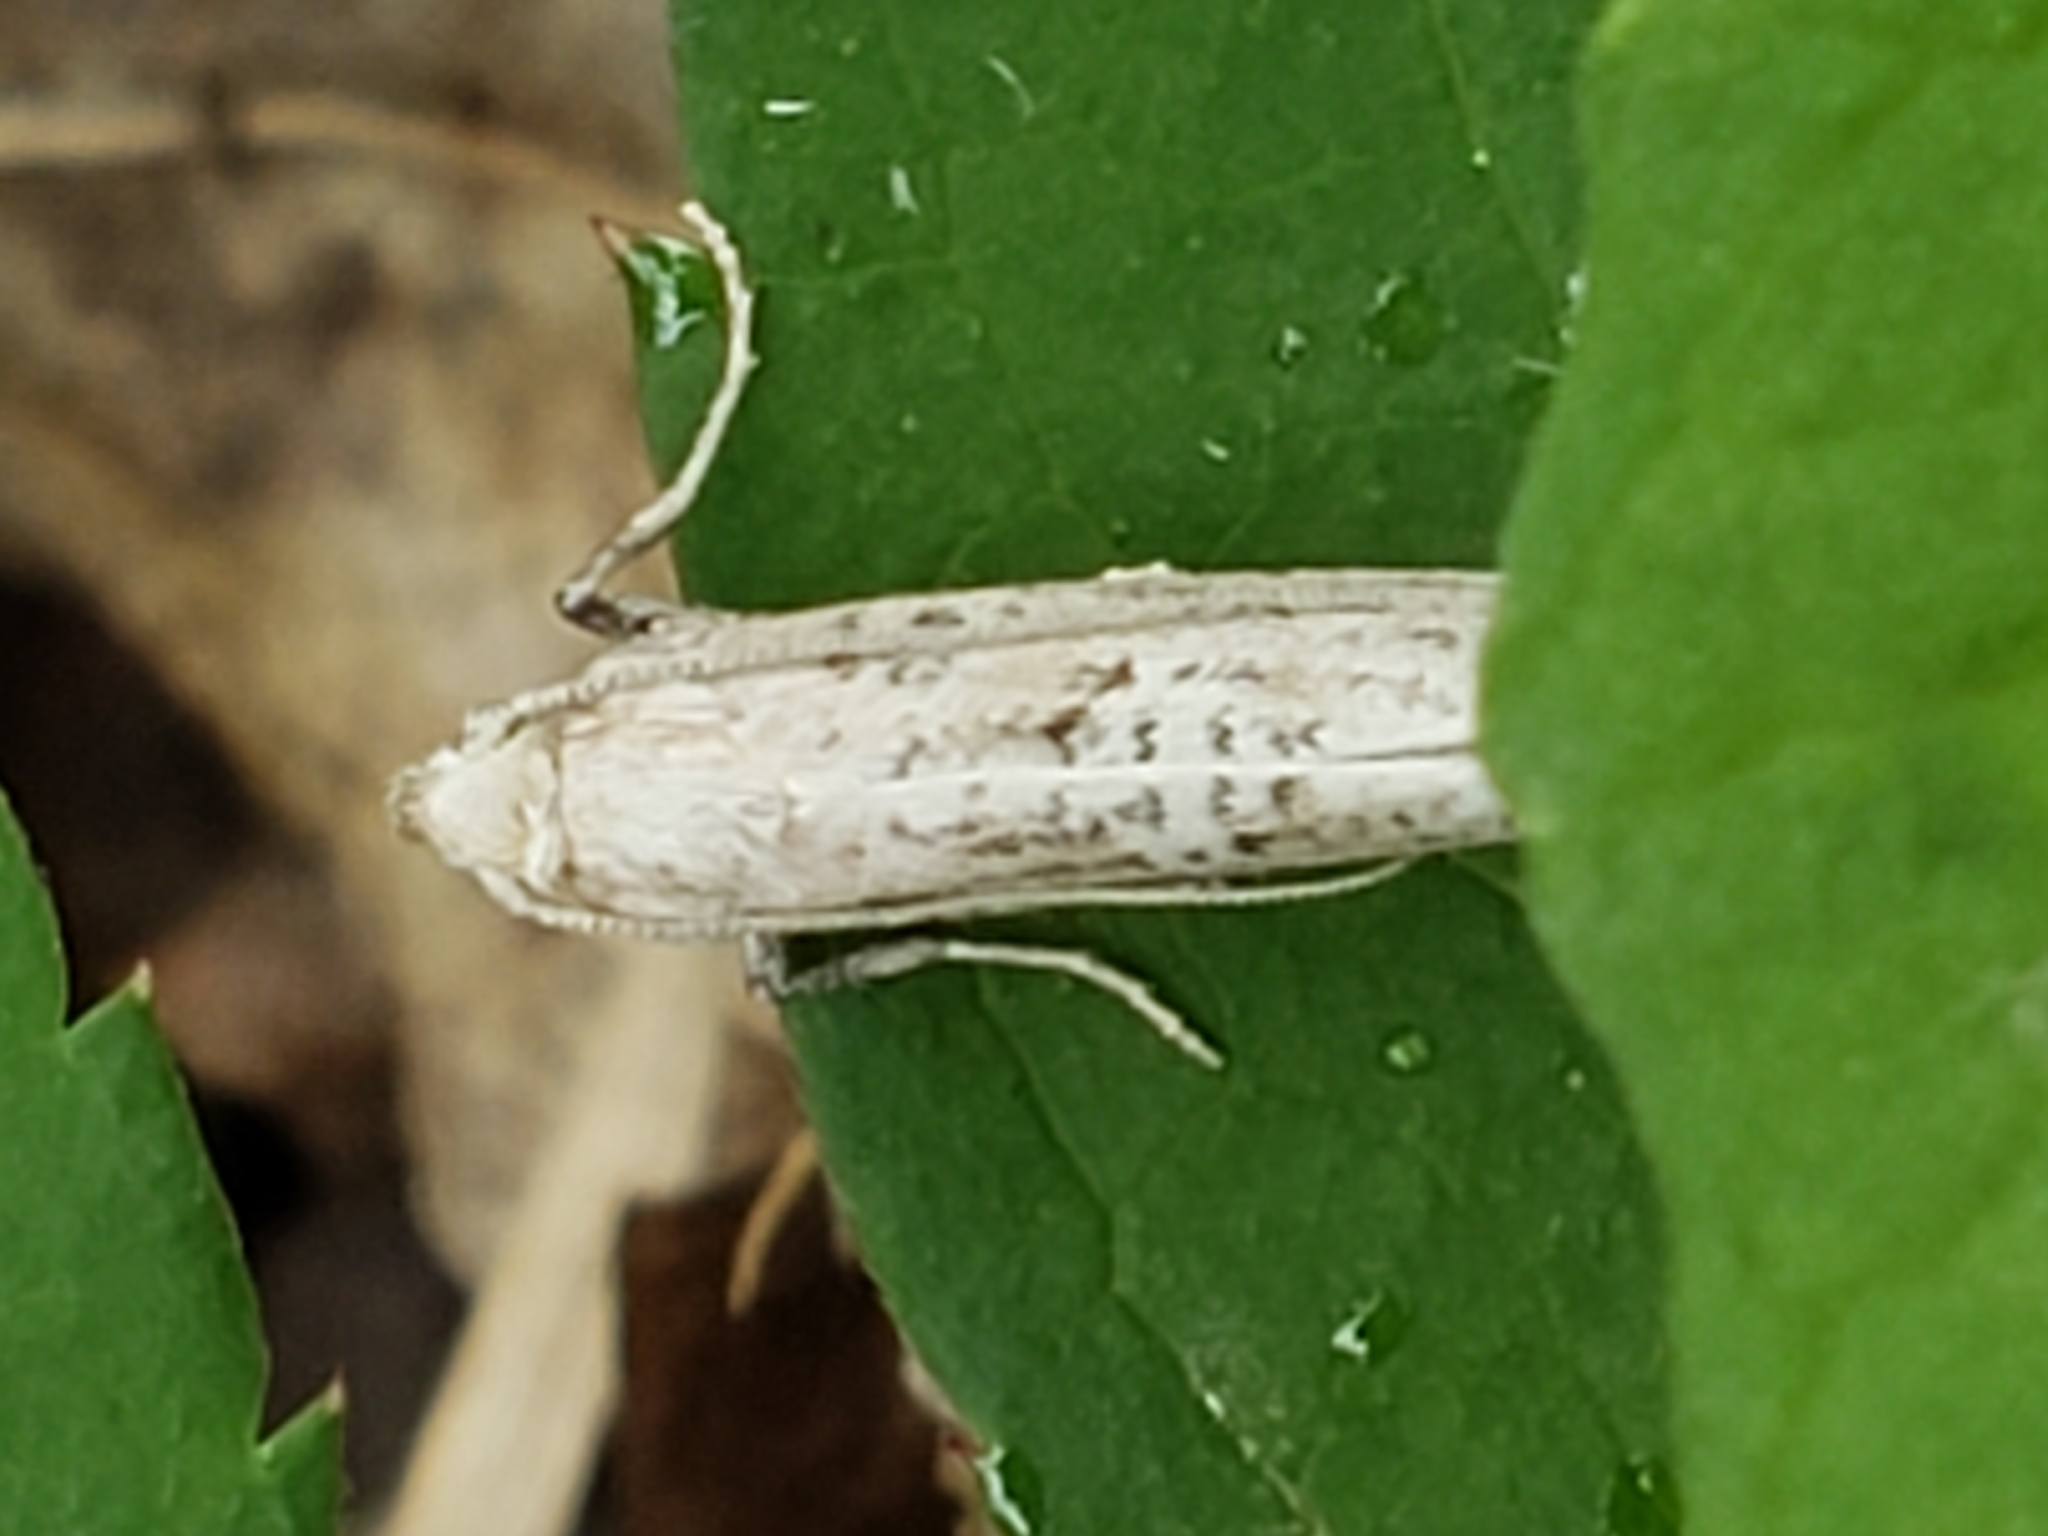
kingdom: Animalia
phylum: Arthropoda
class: Insecta
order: Lepidoptera
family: Glyphipterigidae
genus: Acrolepia
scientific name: Acrolepia Acrolepiopsis leucoscia
